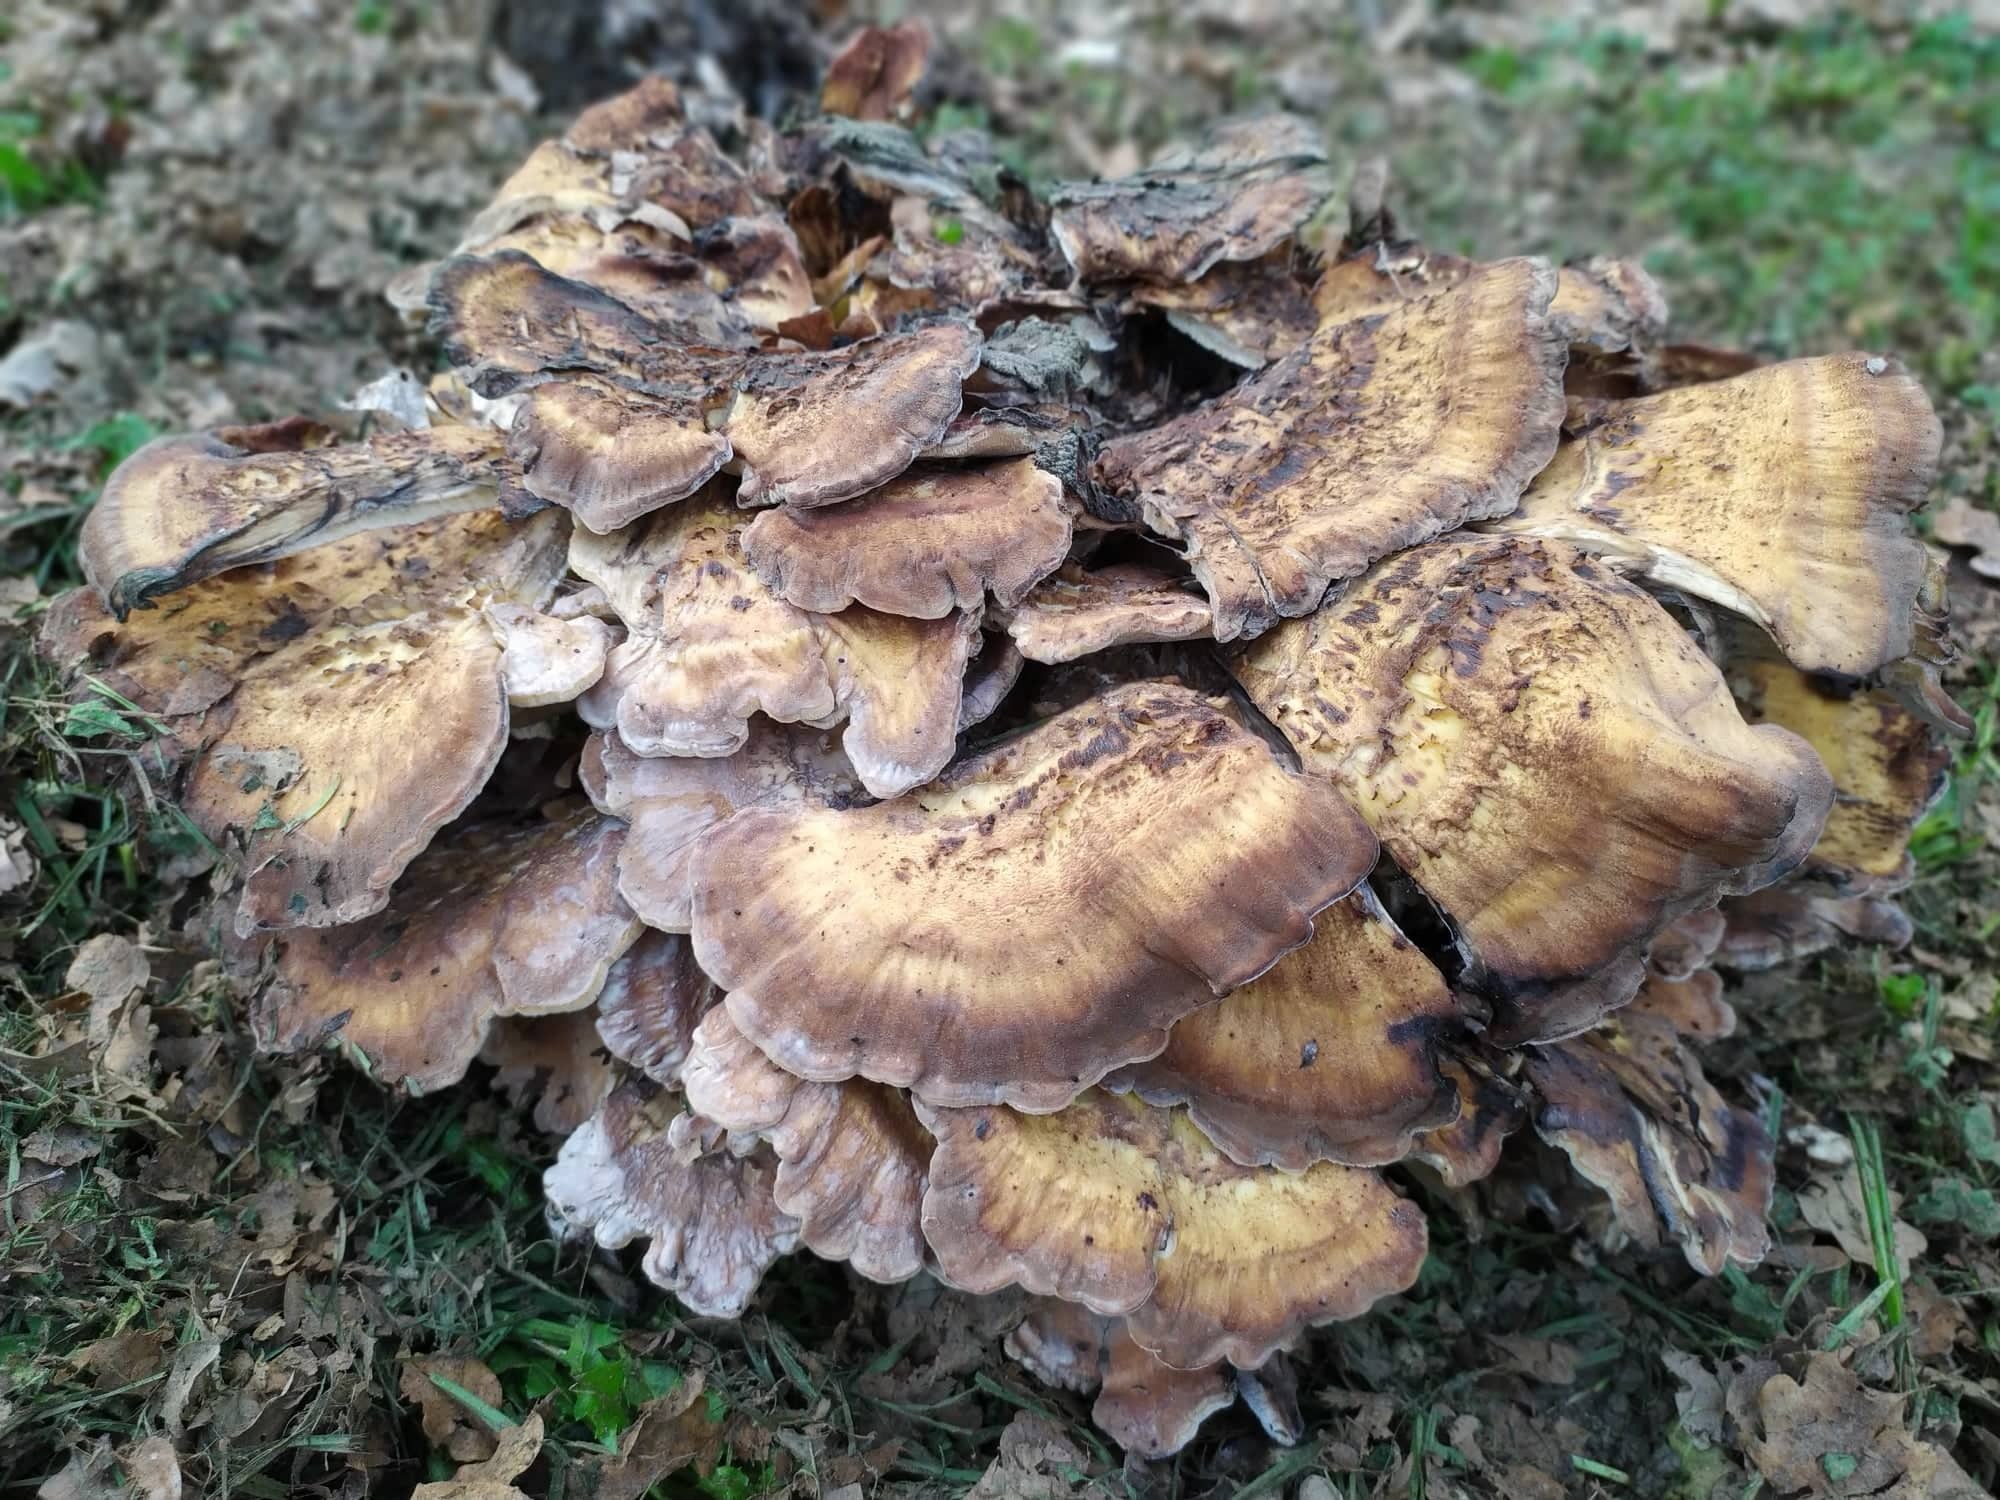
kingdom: Fungi
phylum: Basidiomycota
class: Agaricomycetes
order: Polyporales
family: Meripilaceae
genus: Meripilus
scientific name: Meripilus giganteus
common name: Giant polypore
